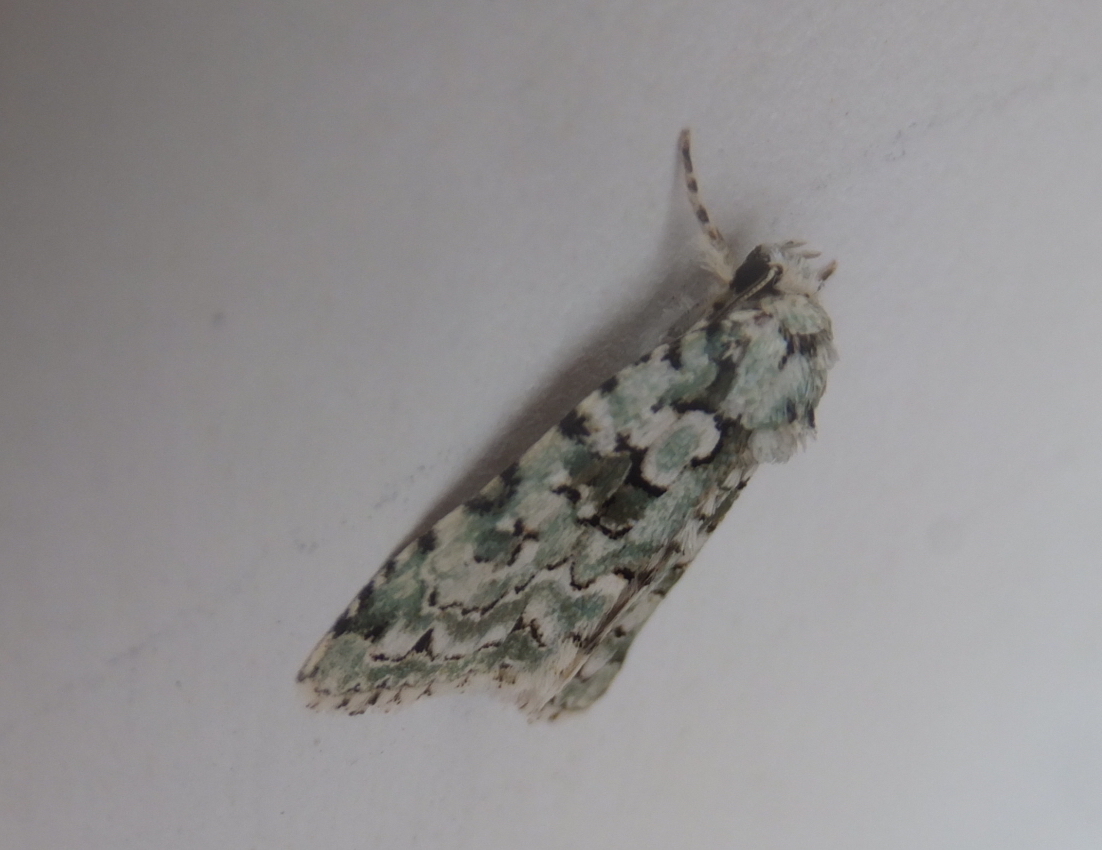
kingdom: Animalia
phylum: Arthropoda
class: Insecta
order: Lepidoptera
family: Noctuidae
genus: Nyctobrya
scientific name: Nyctobrya muralis
